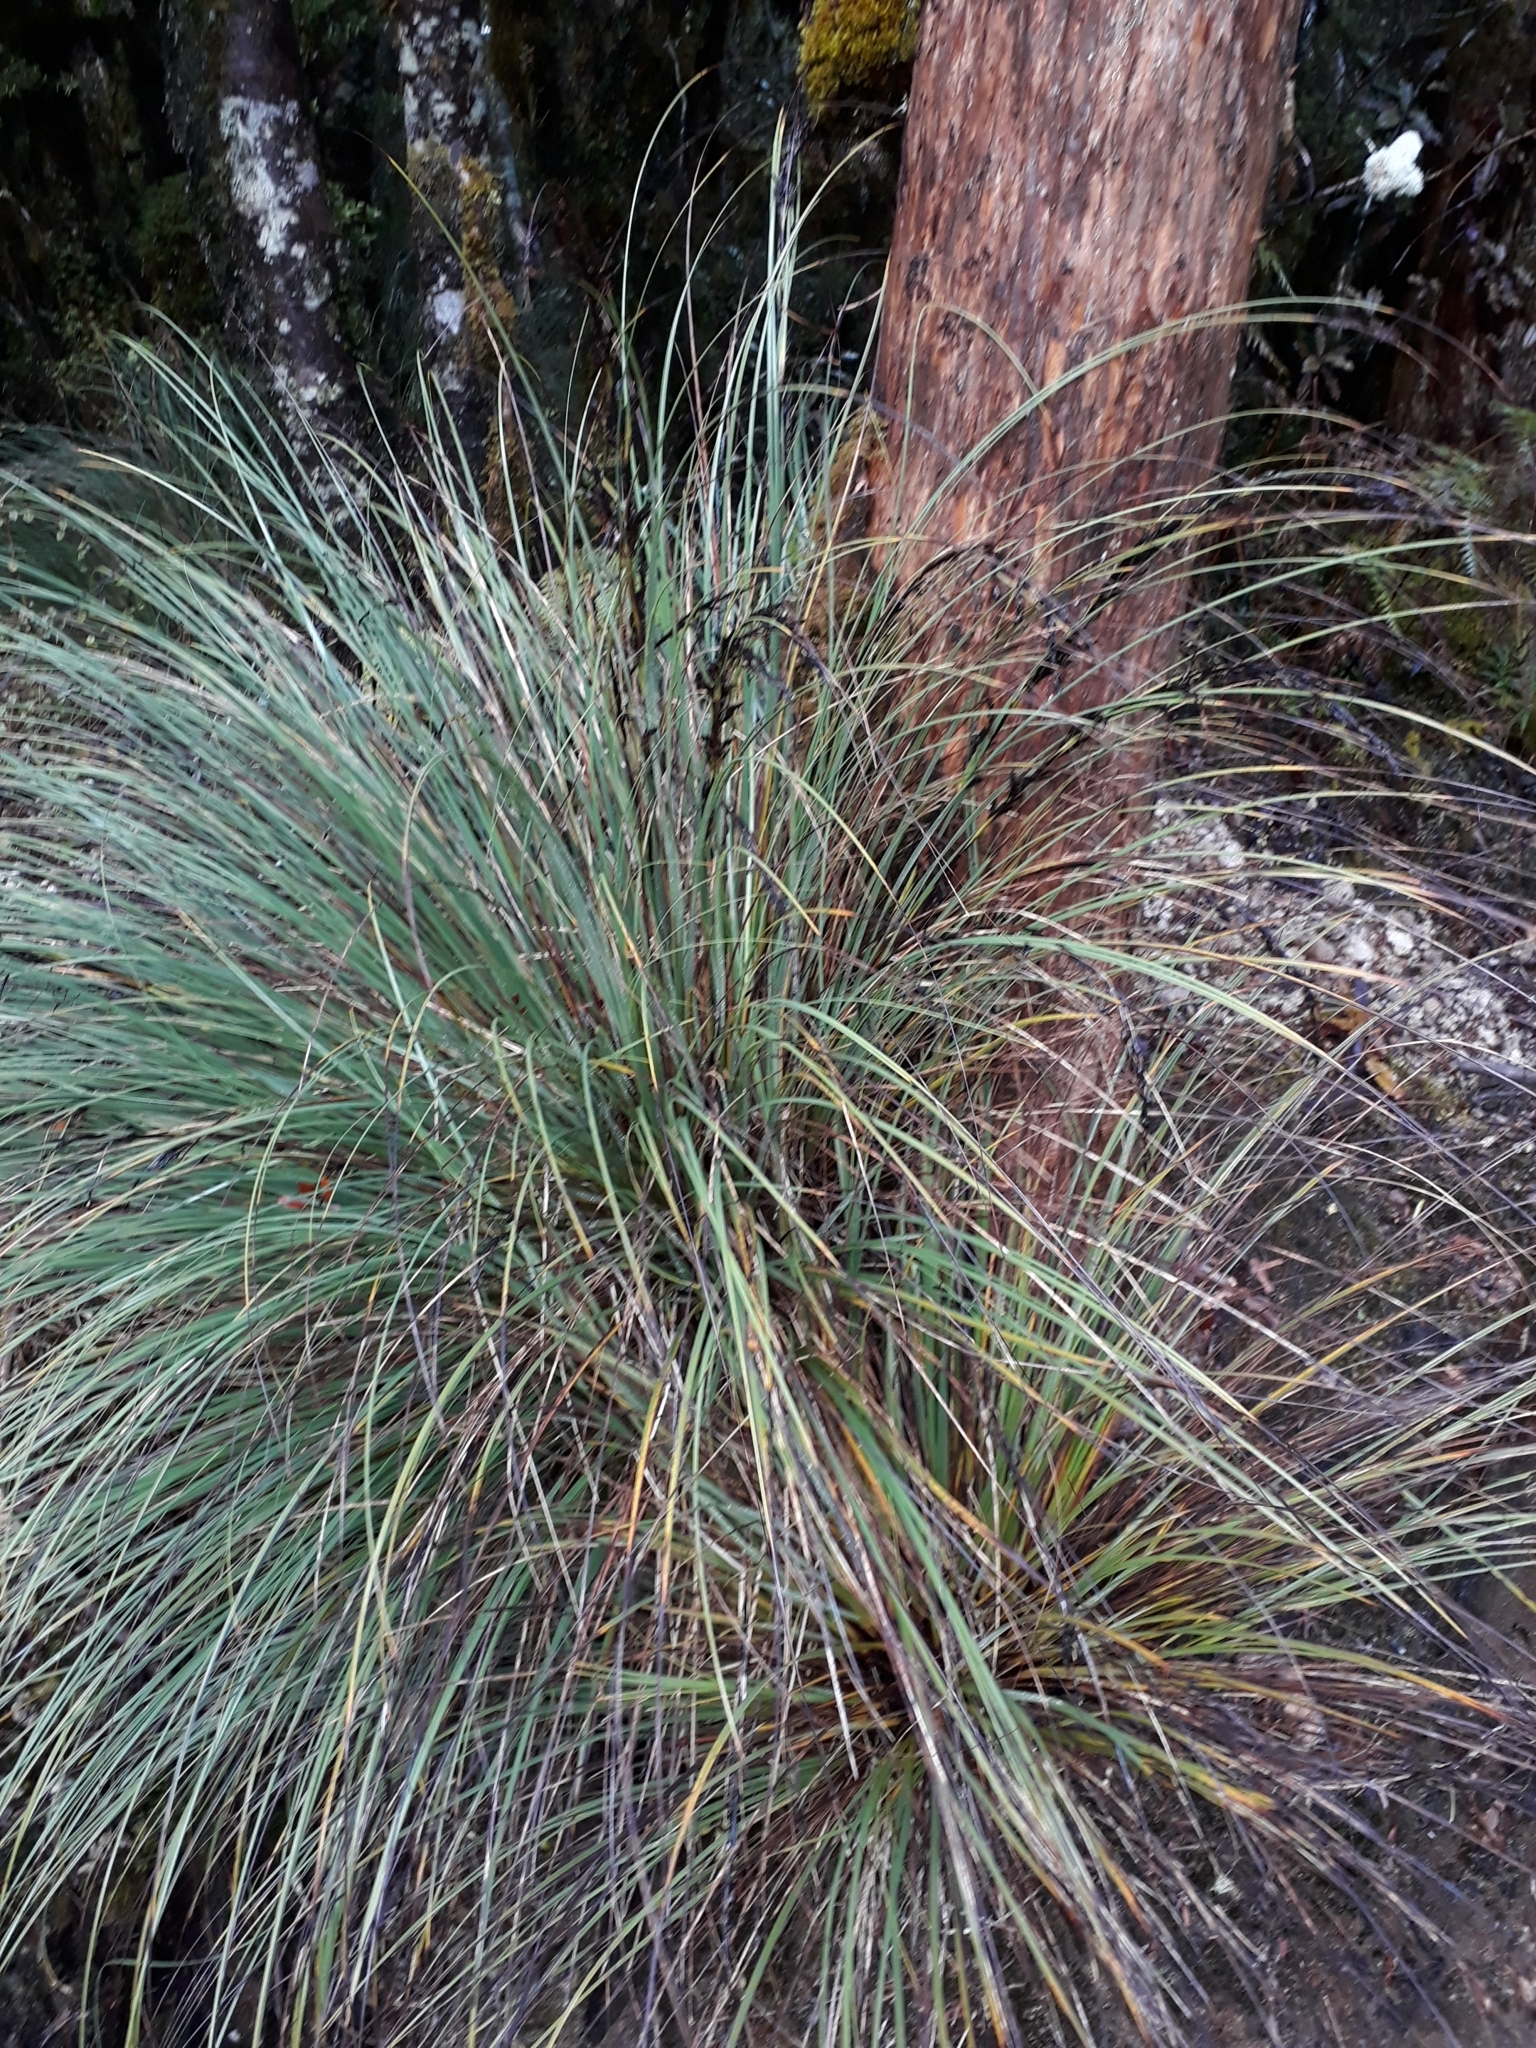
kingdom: Plantae
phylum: Tracheophyta
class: Liliopsida
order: Poales
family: Cyperaceae
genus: Gahnia
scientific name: Gahnia procera
